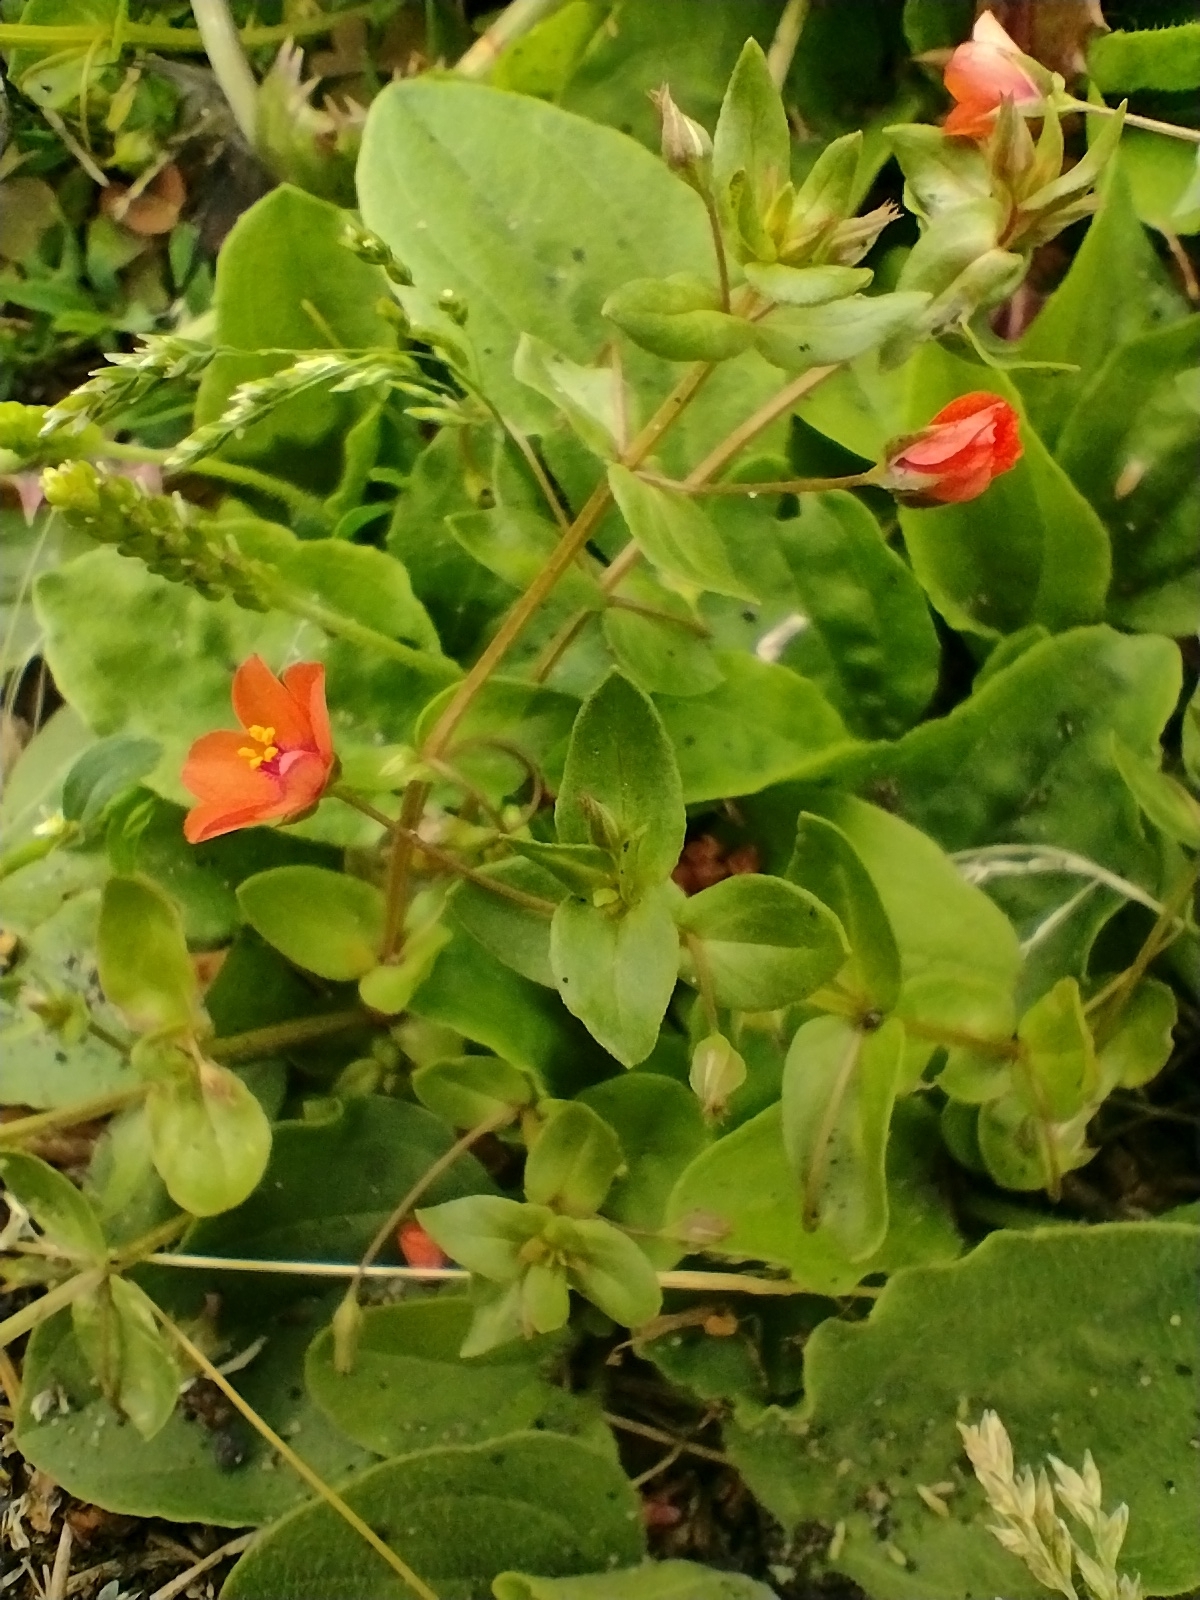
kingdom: Plantae
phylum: Tracheophyta
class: Magnoliopsida
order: Ericales
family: Primulaceae
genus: Lysimachia
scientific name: Lysimachia arvensis
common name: Scarlet pimpernel
